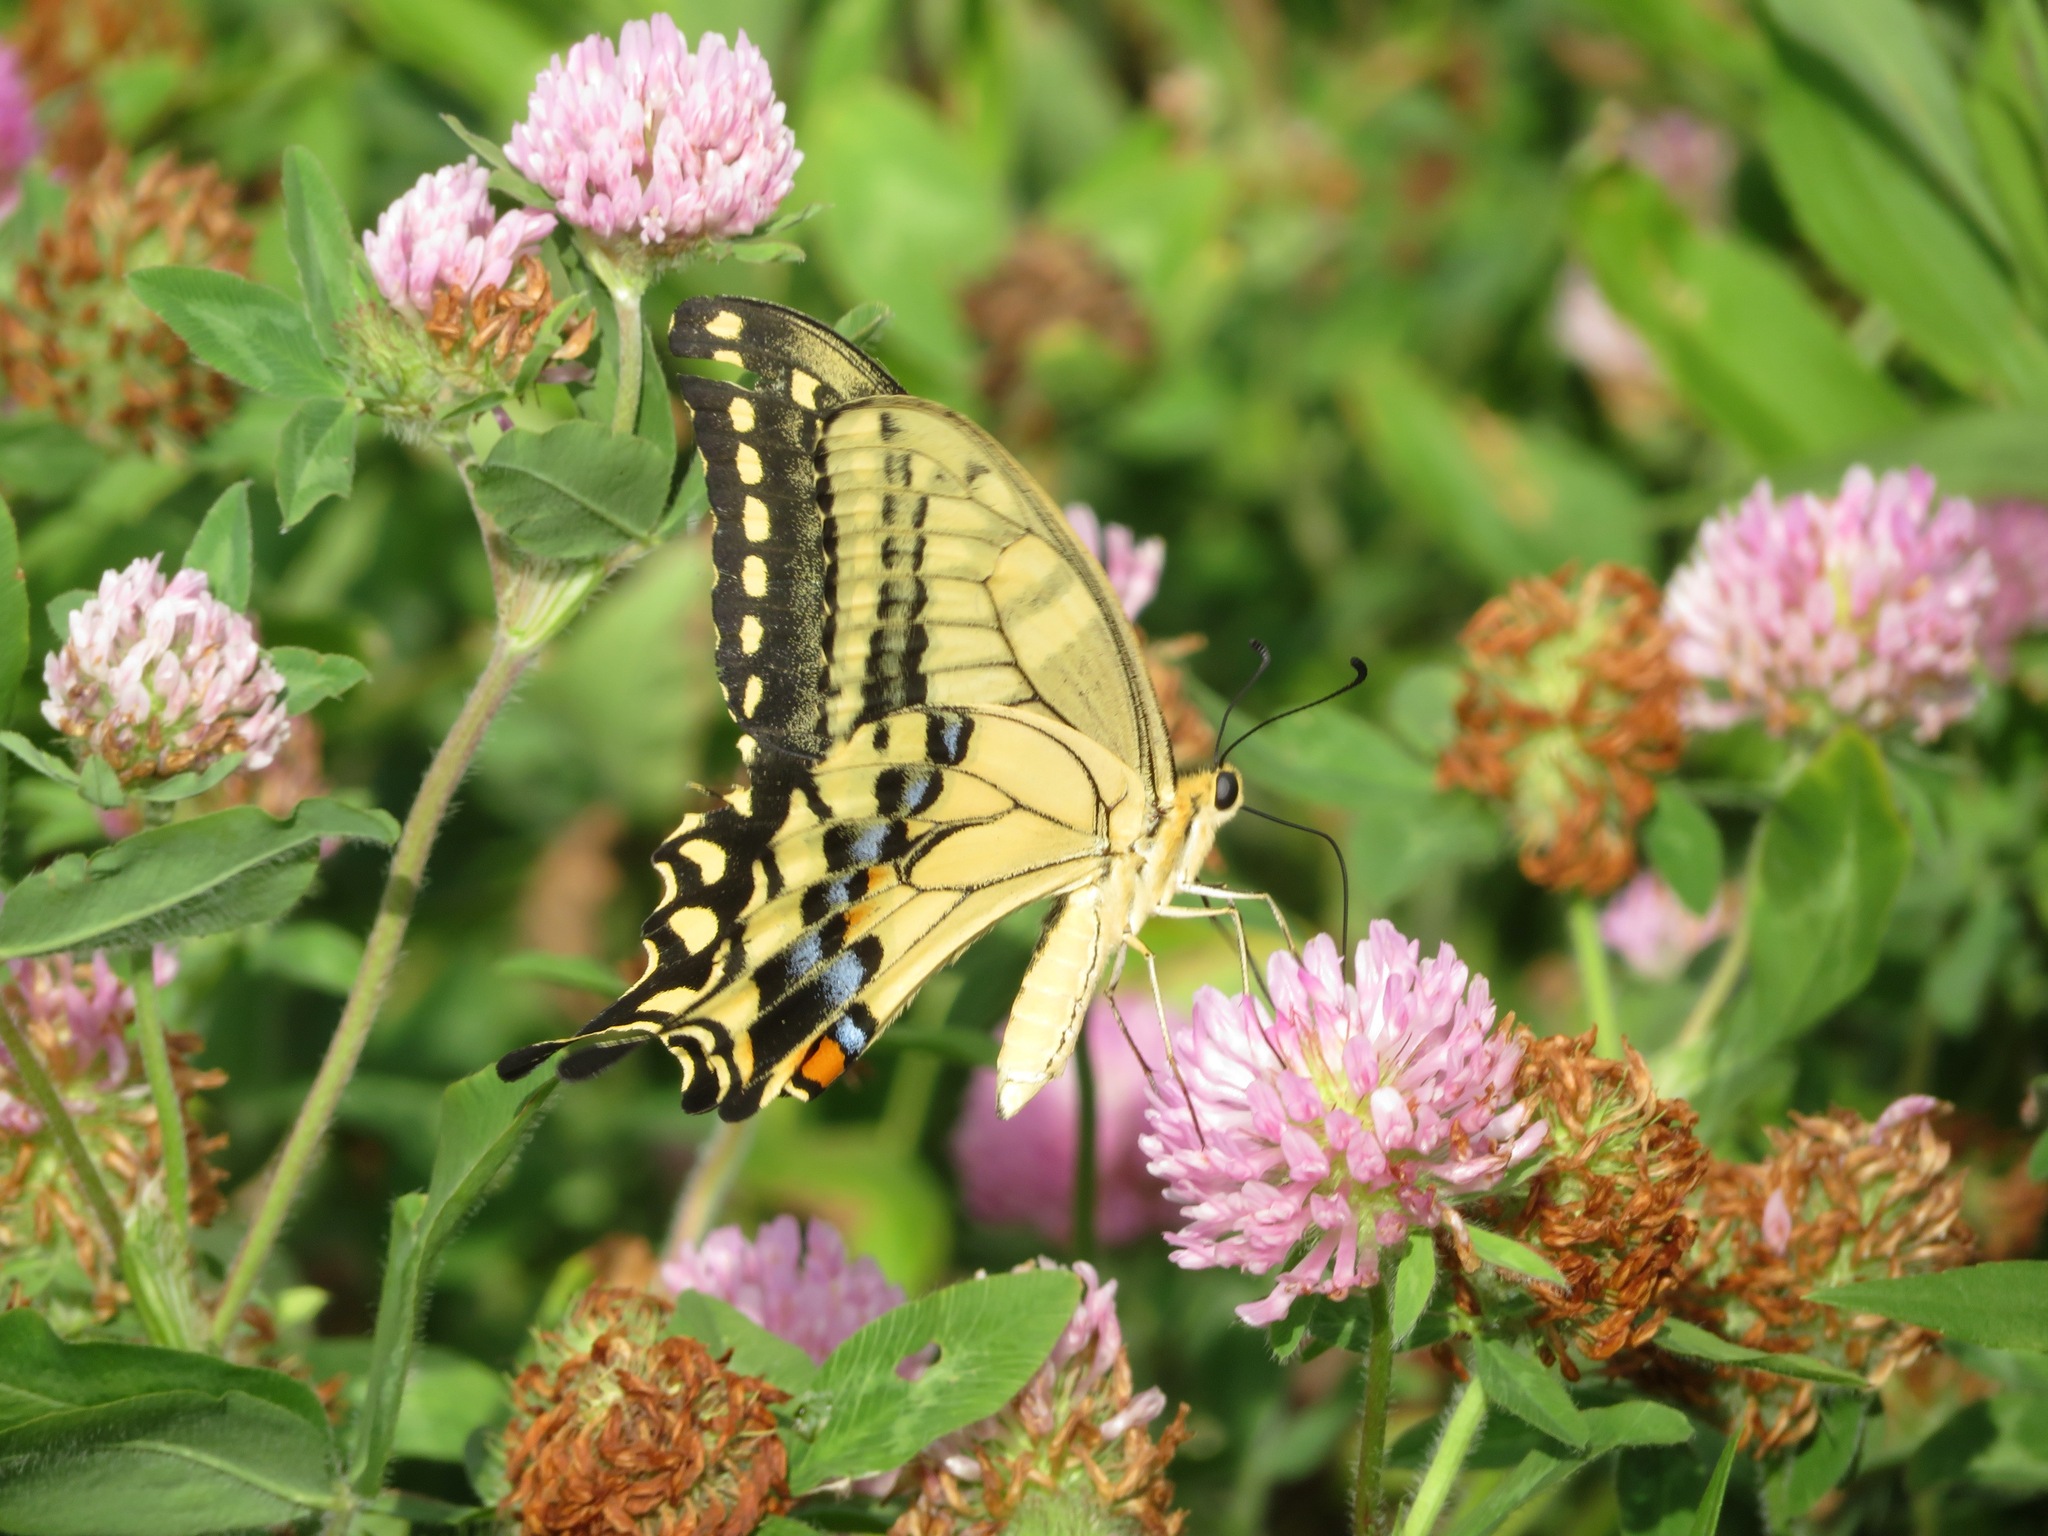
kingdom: Animalia
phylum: Arthropoda
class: Insecta
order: Lepidoptera
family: Papilionidae
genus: Papilio
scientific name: Papilio machaon
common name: Swallowtail
